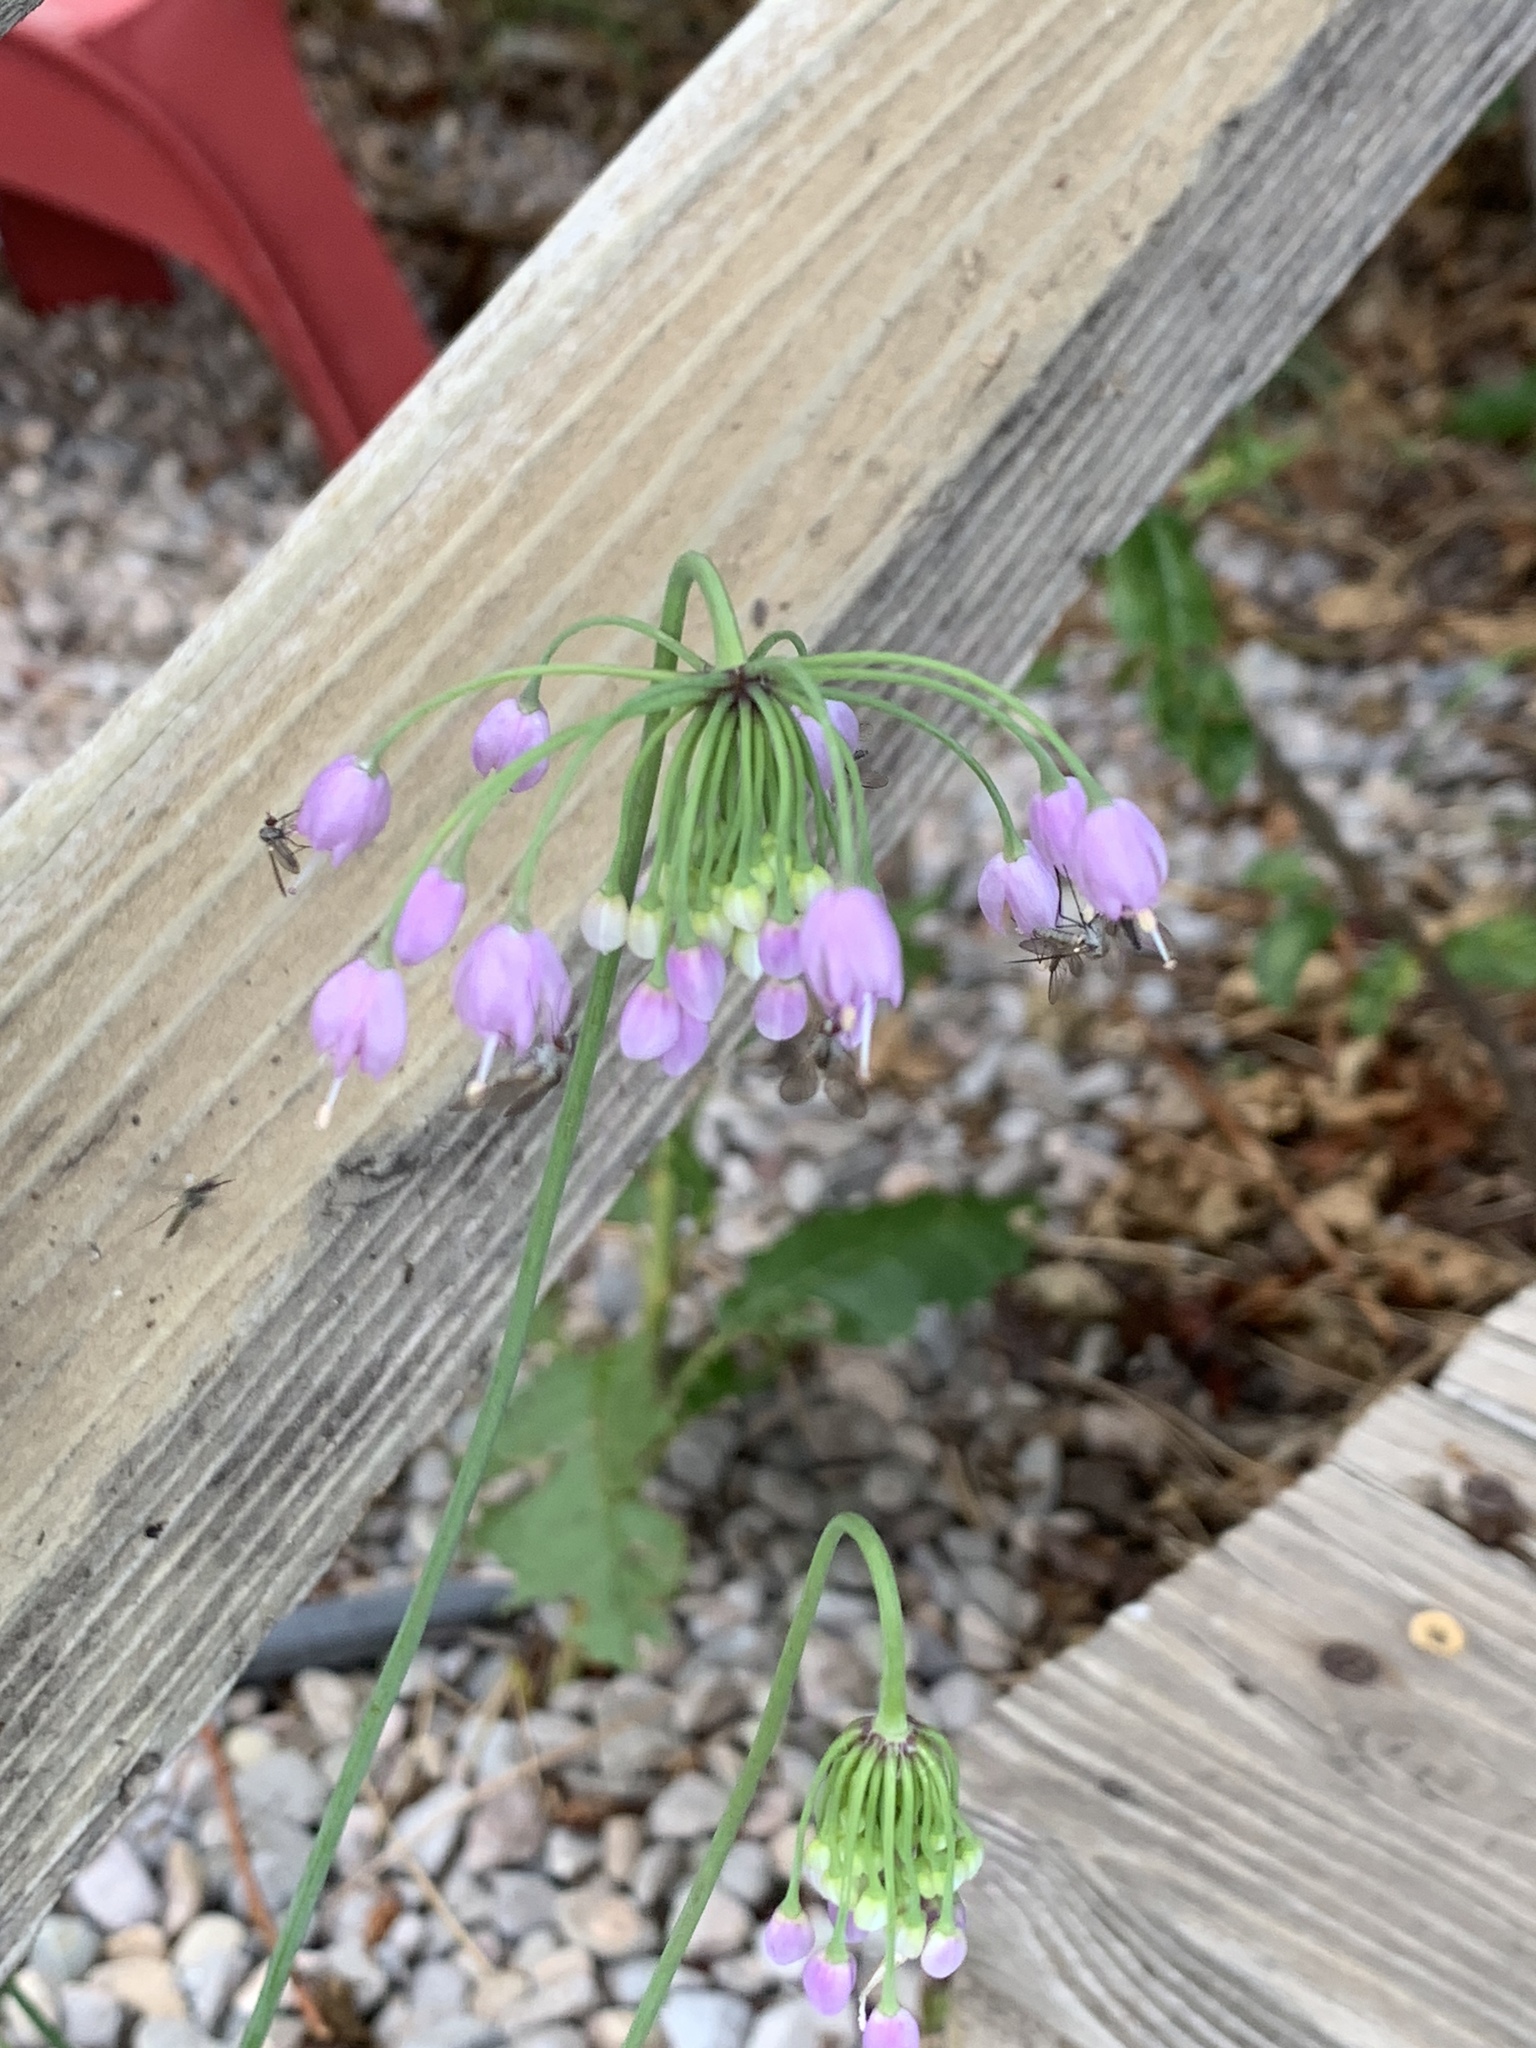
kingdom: Plantae
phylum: Tracheophyta
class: Liliopsida
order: Asparagales
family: Amaryllidaceae
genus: Allium
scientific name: Allium cernuum
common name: Nodding onion
